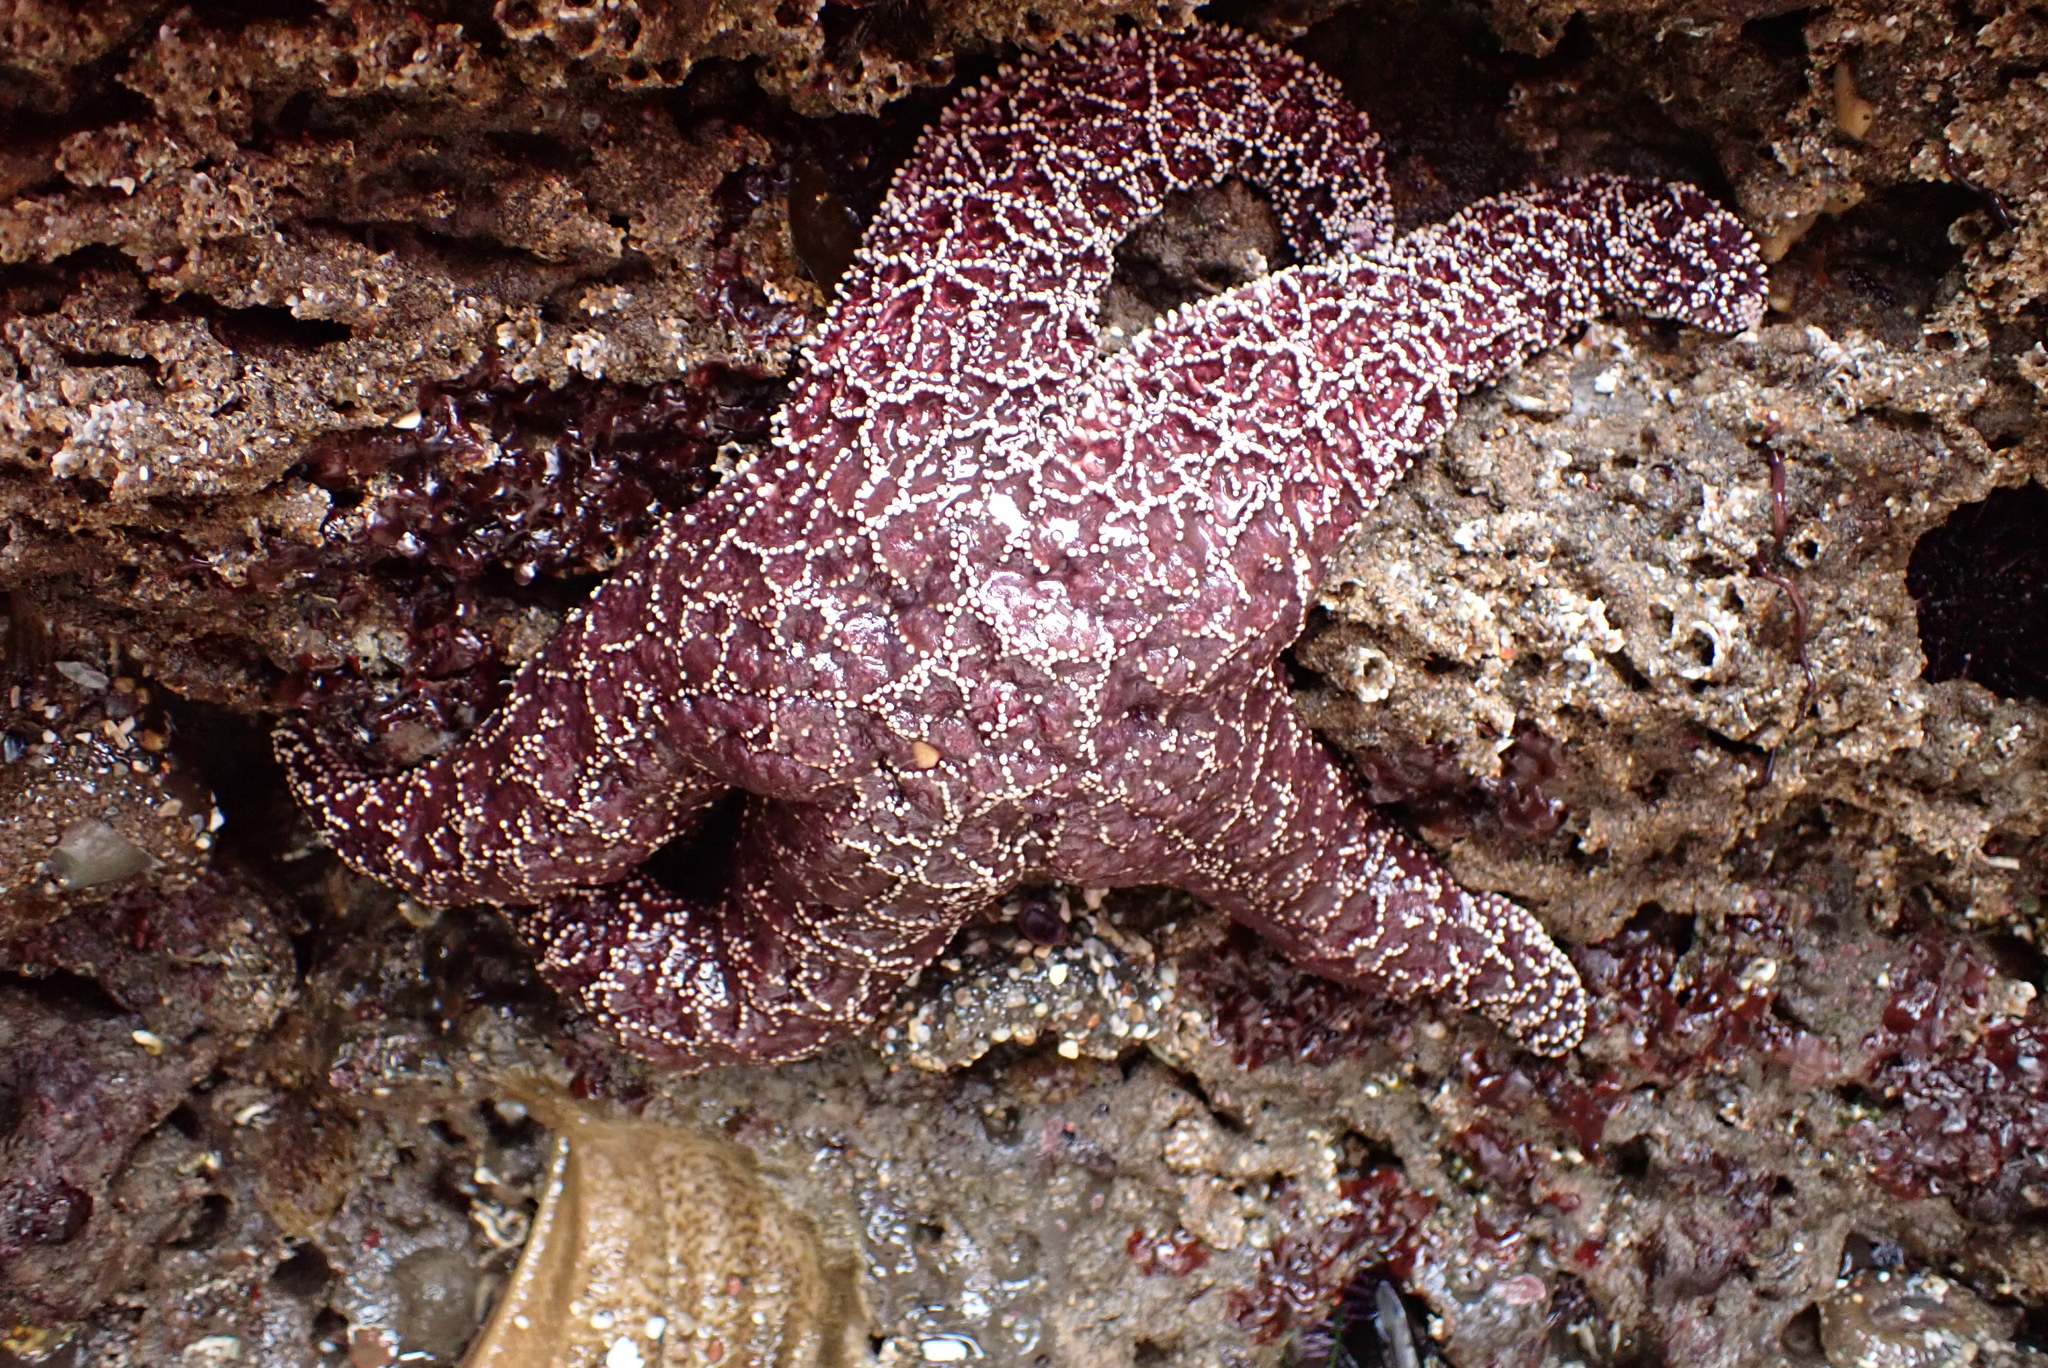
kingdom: Animalia
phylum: Echinodermata
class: Asteroidea
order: Forcipulatida
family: Asteriidae
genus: Pisaster
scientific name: Pisaster ochraceus
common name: Ochre stars
